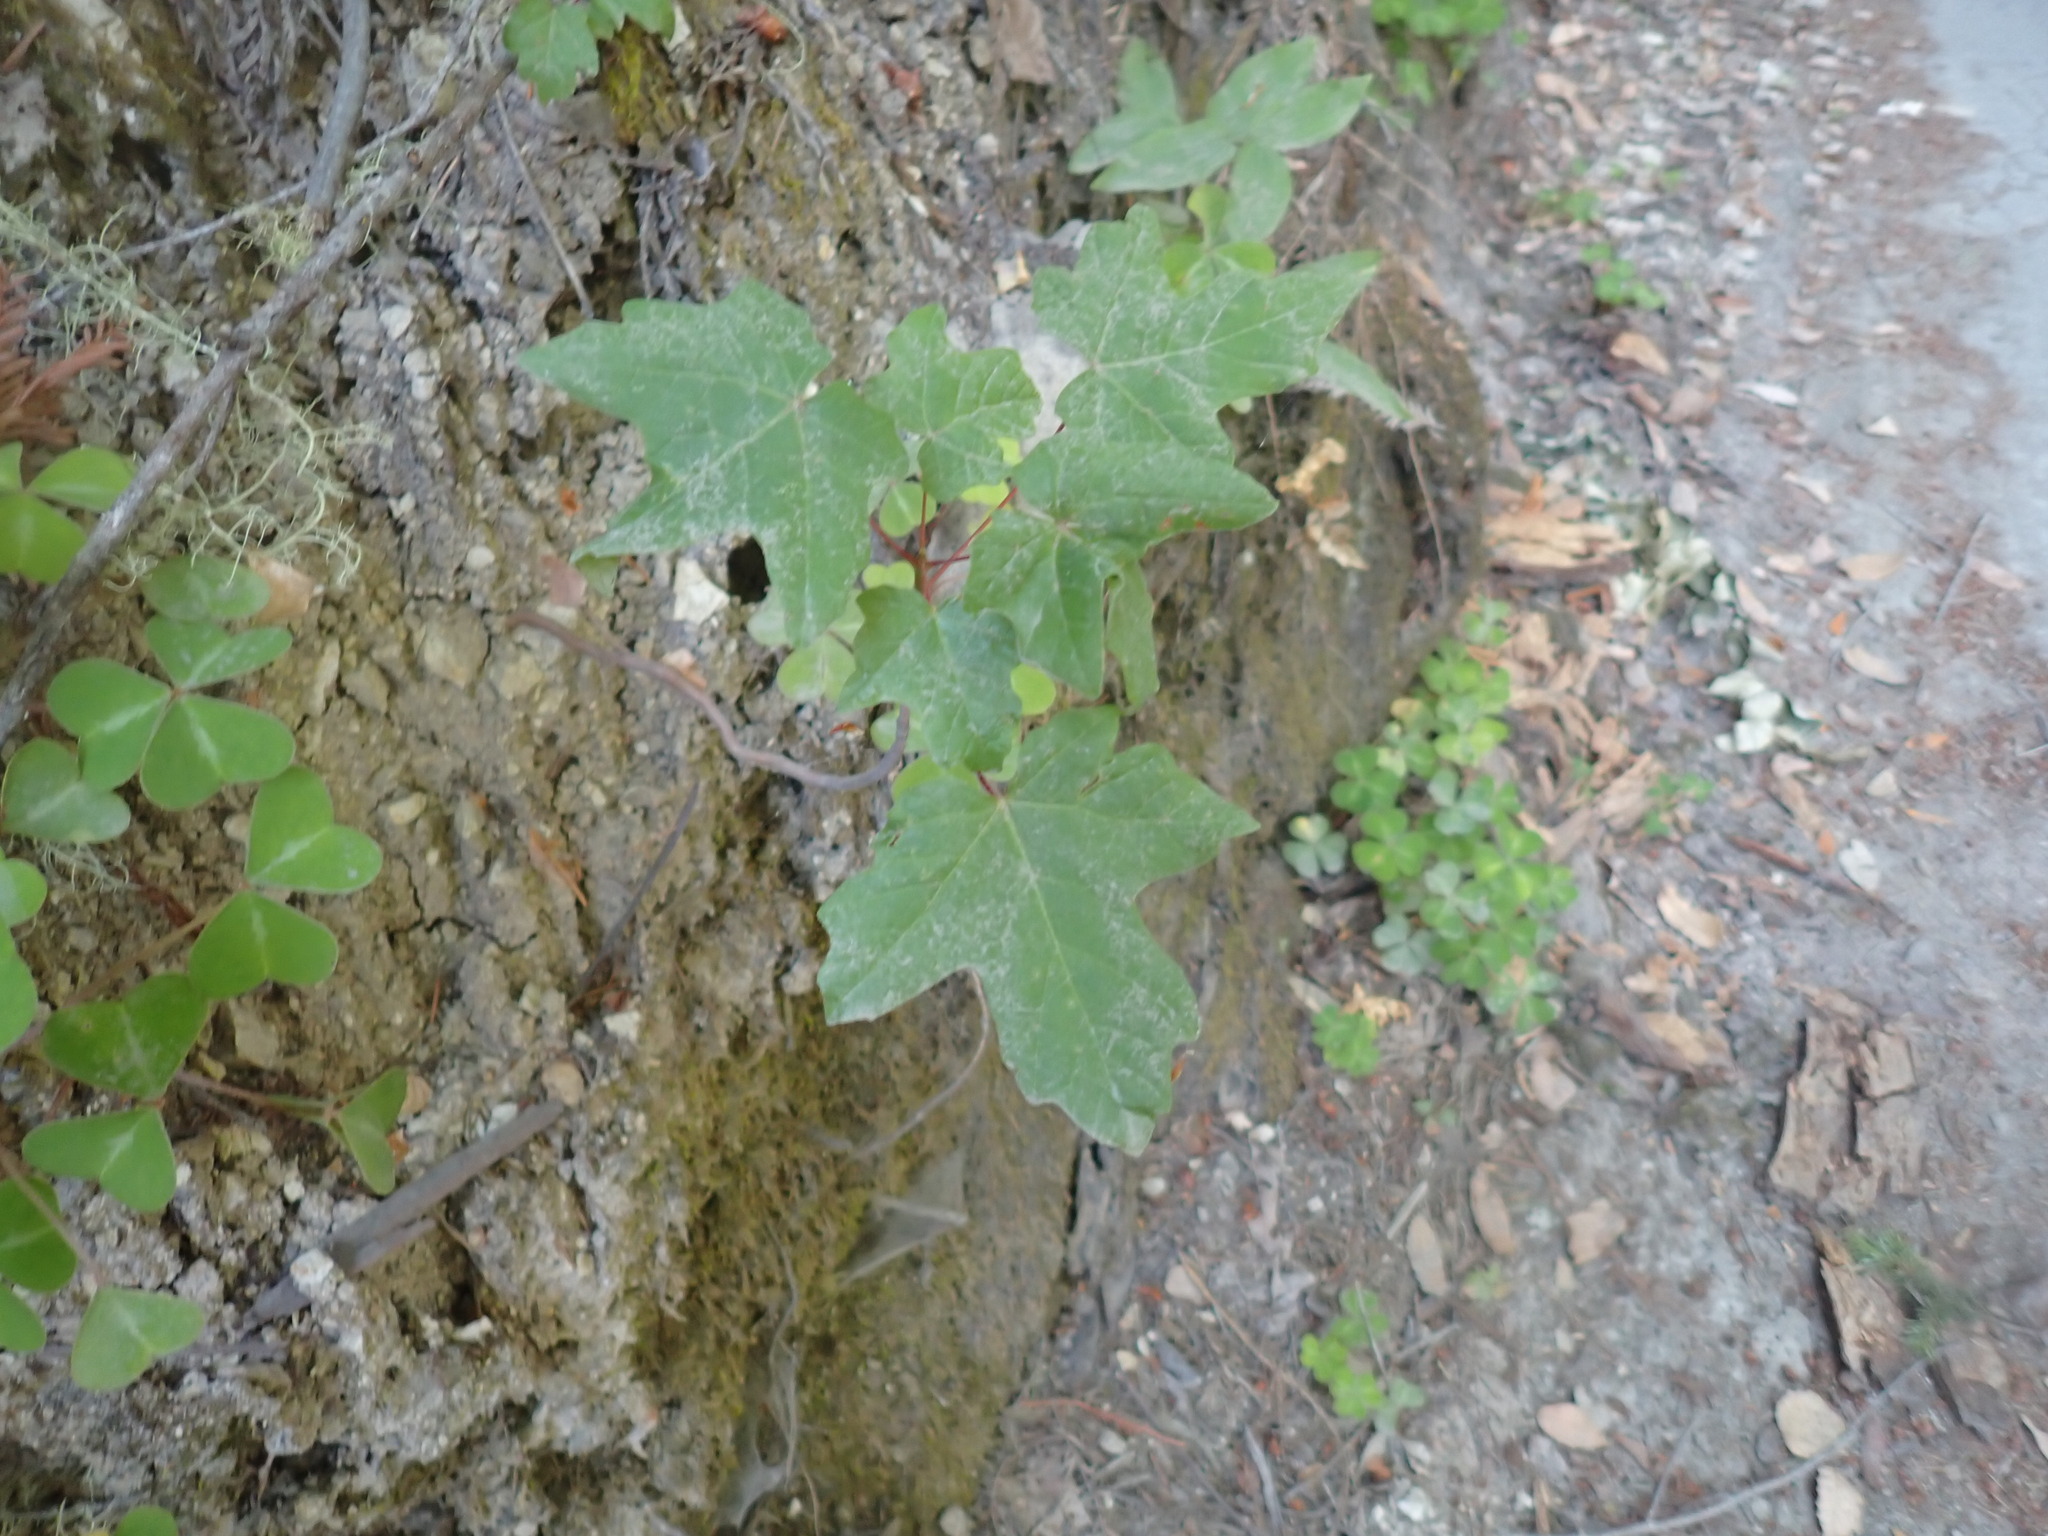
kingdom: Plantae
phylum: Tracheophyta
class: Magnoliopsida
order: Sapindales
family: Sapindaceae
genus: Acer
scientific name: Acer macrophyllum
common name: Oregon maple
